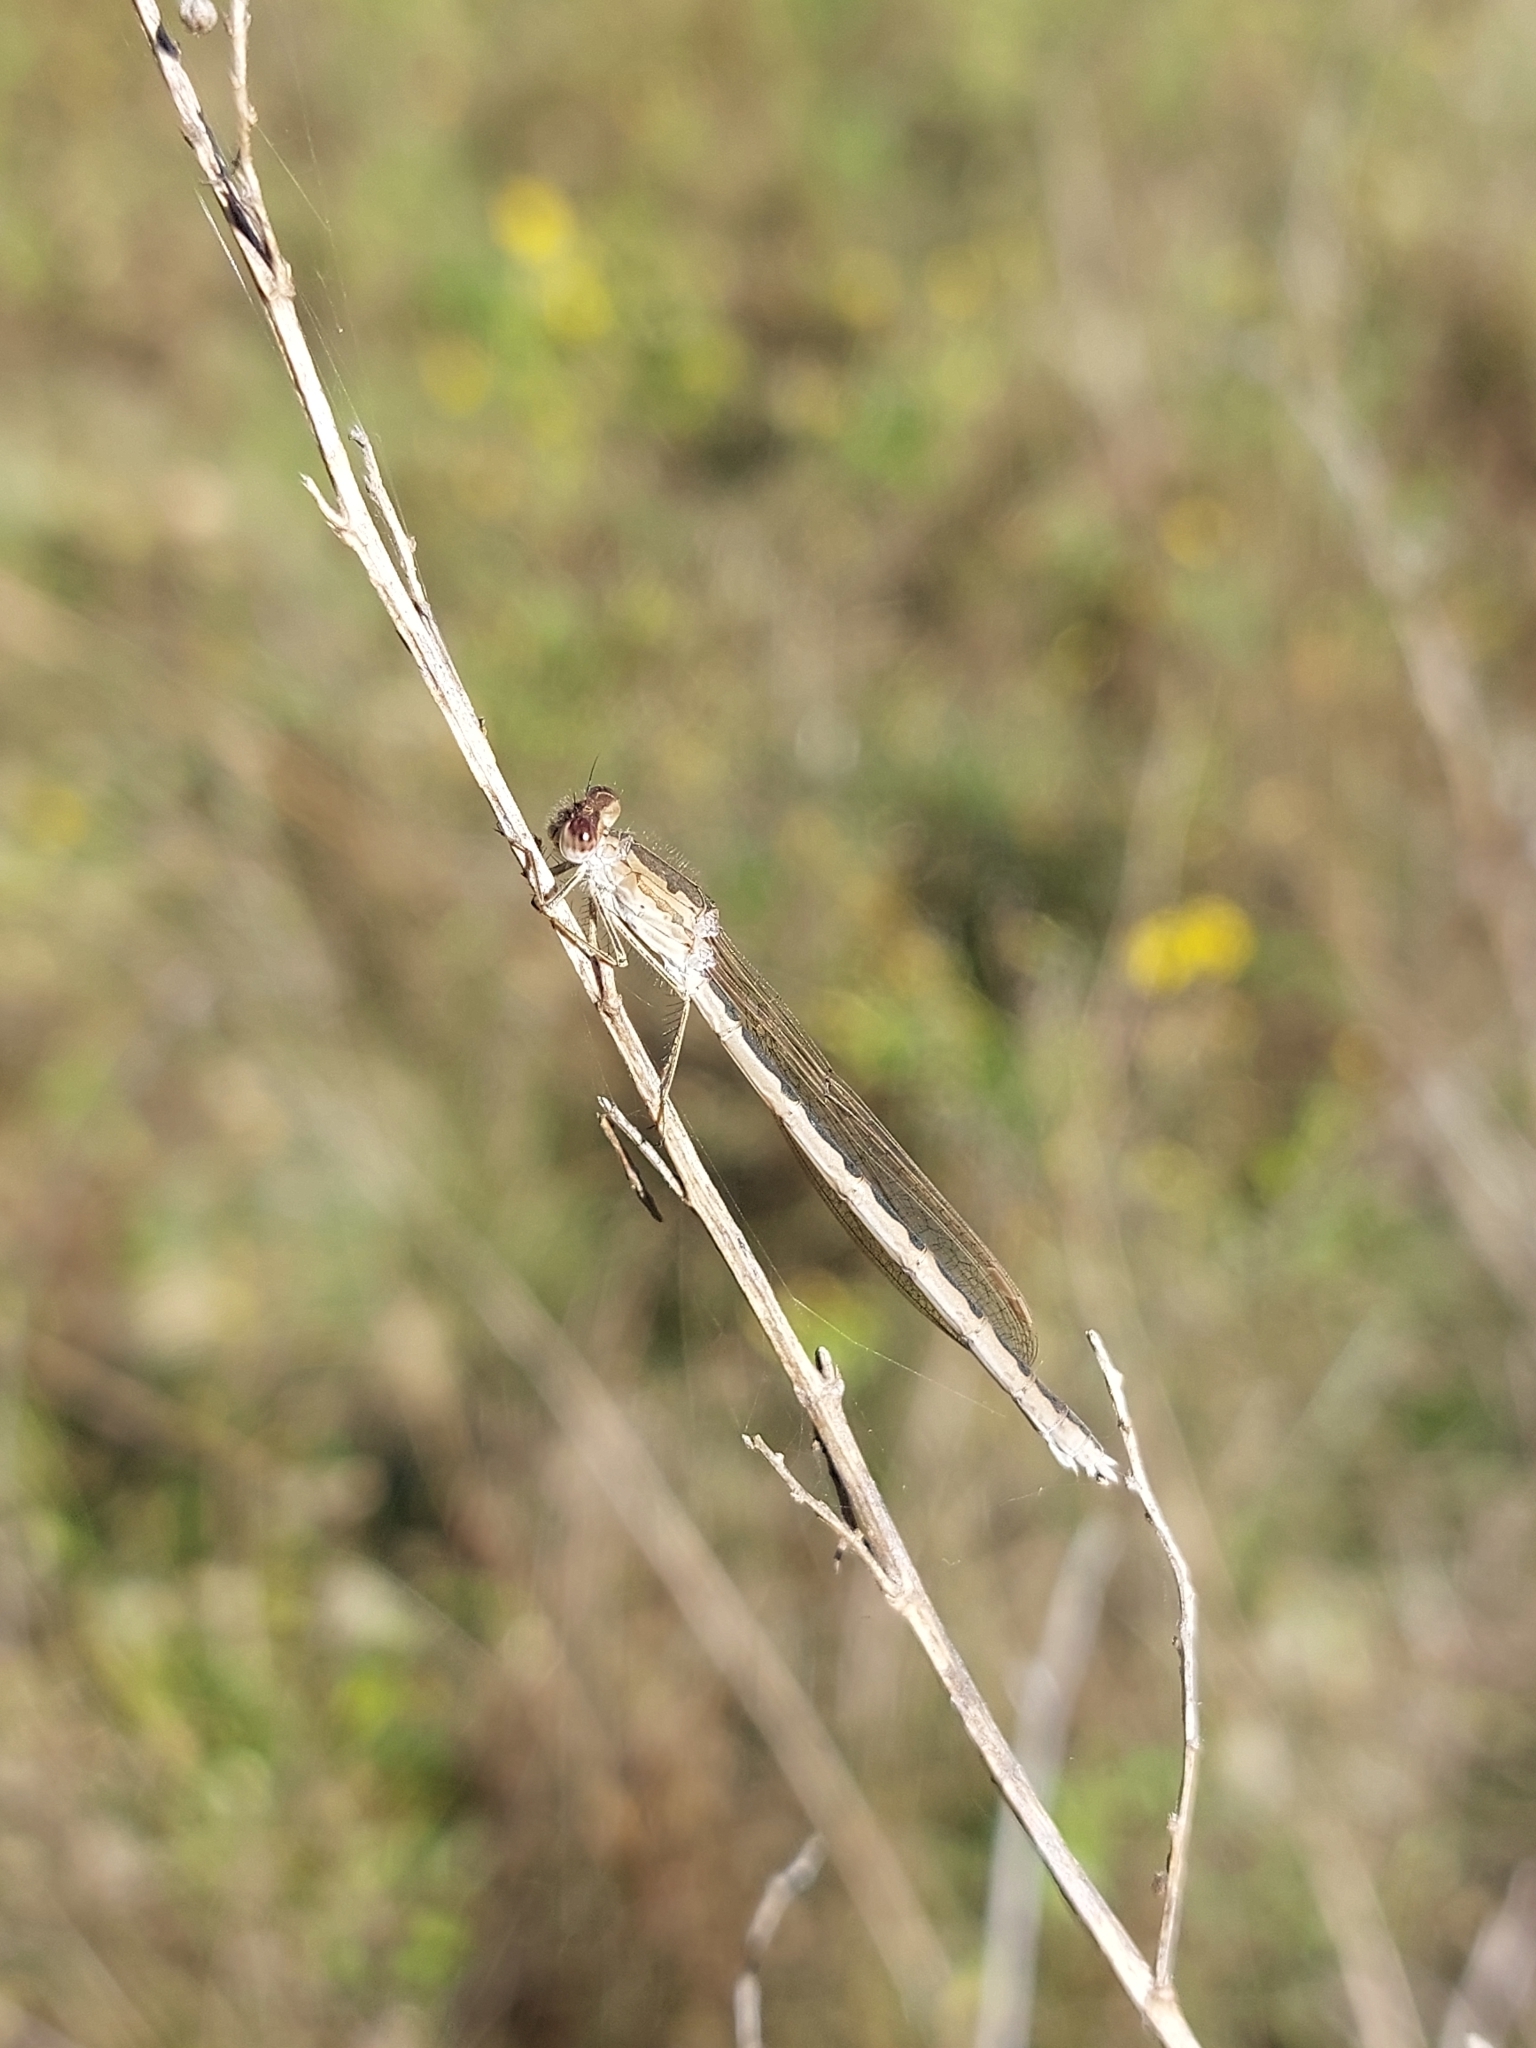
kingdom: Animalia
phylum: Arthropoda
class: Insecta
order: Odonata
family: Lestidae
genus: Sympecma
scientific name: Sympecma paedisca
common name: Siberian winter damsel
